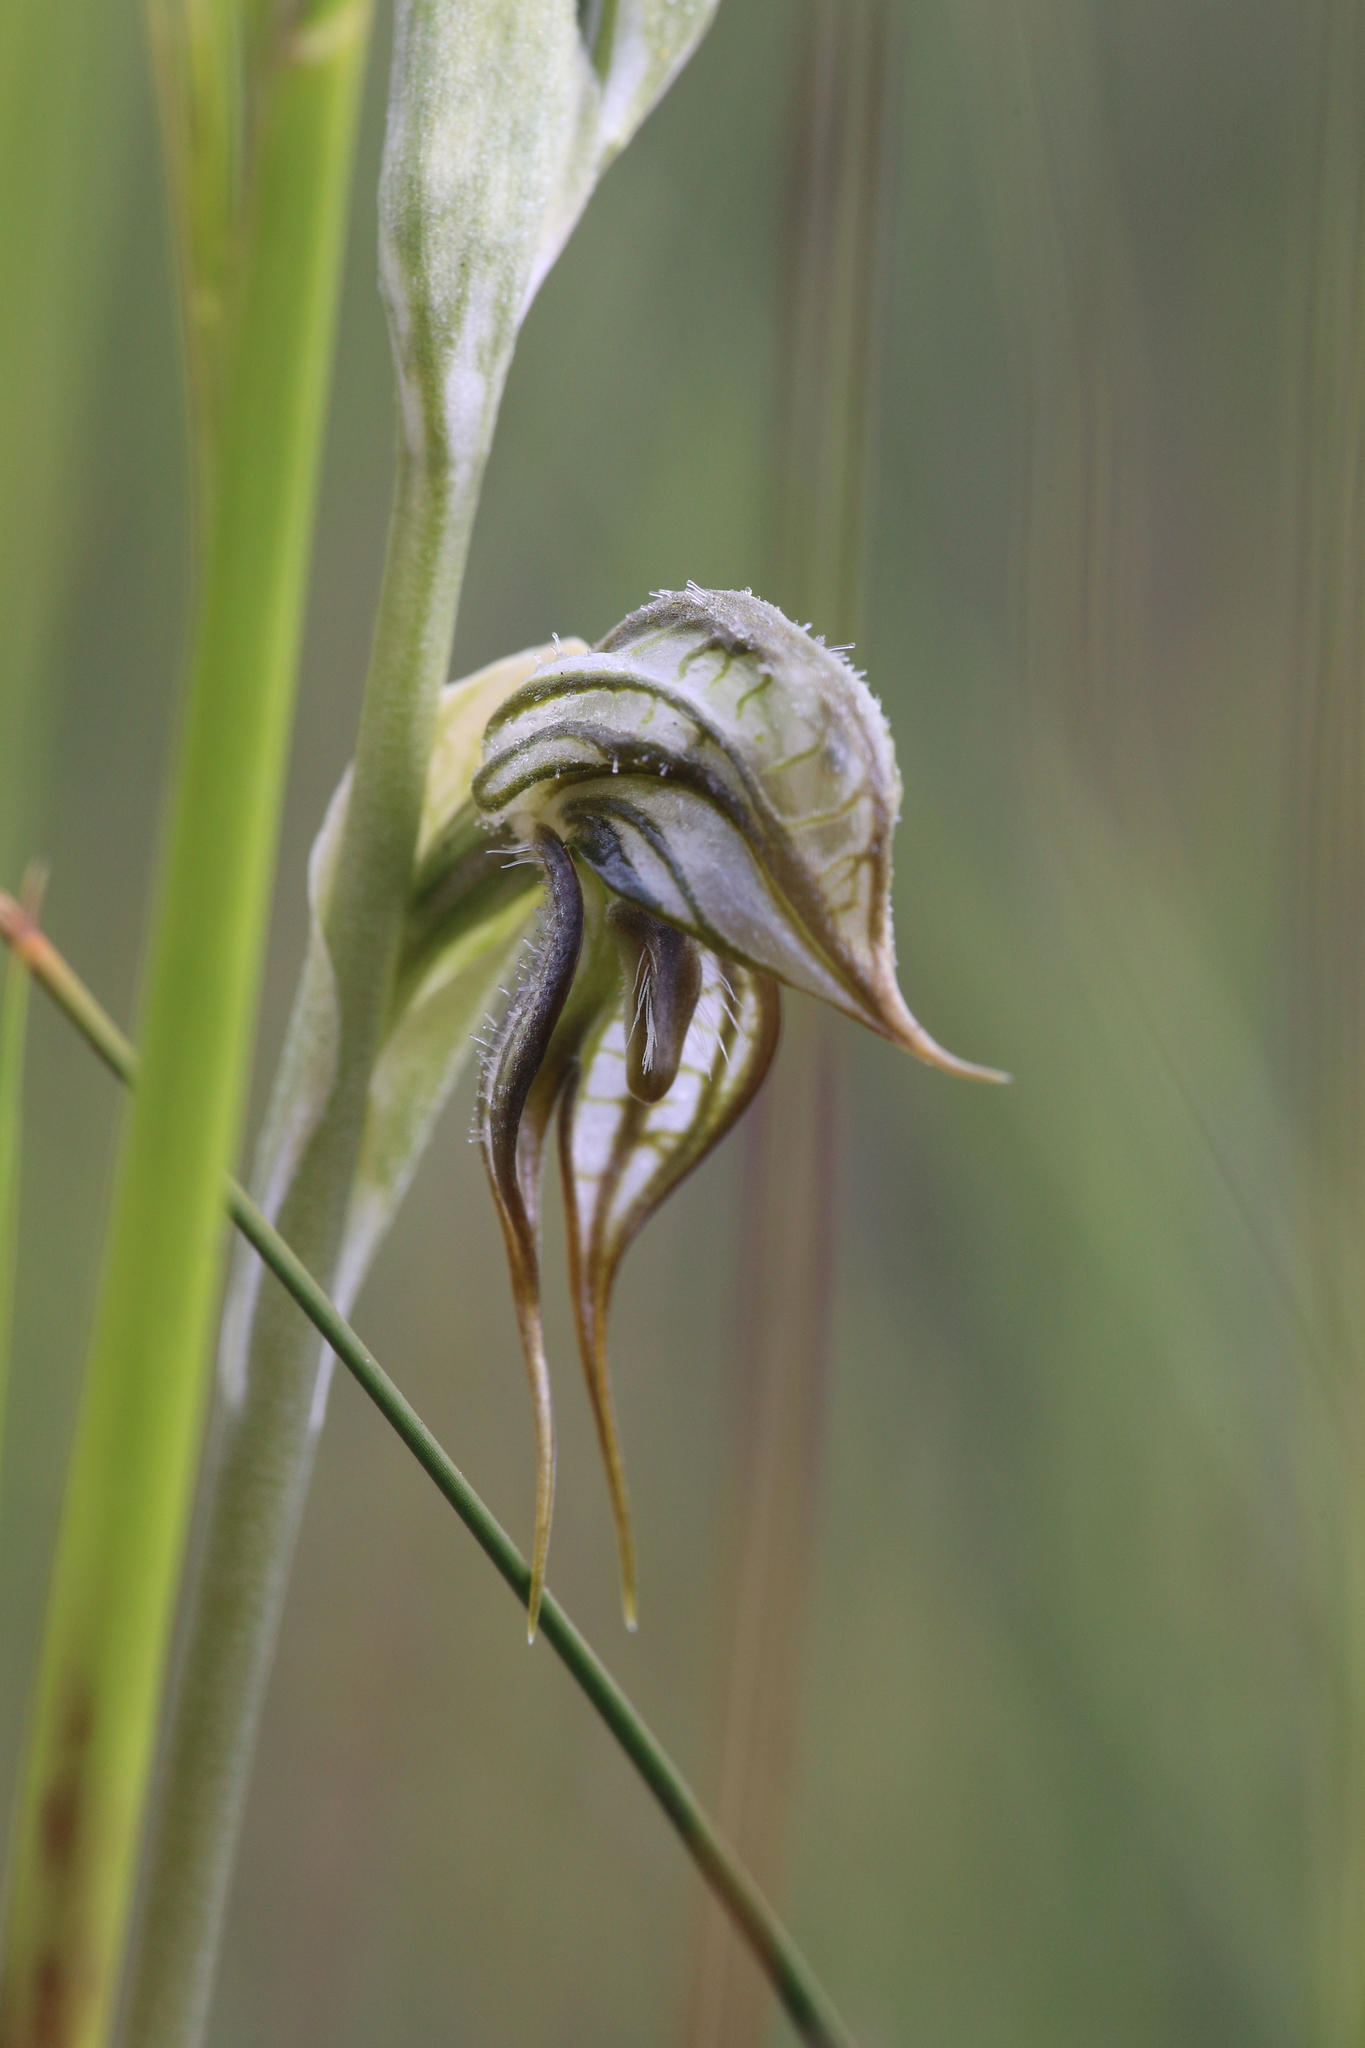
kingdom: Plantae
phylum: Tracheophyta
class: Liliopsida
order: Asparagales
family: Orchidaceae
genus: Pterostylis
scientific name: Pterostylis leptochila
